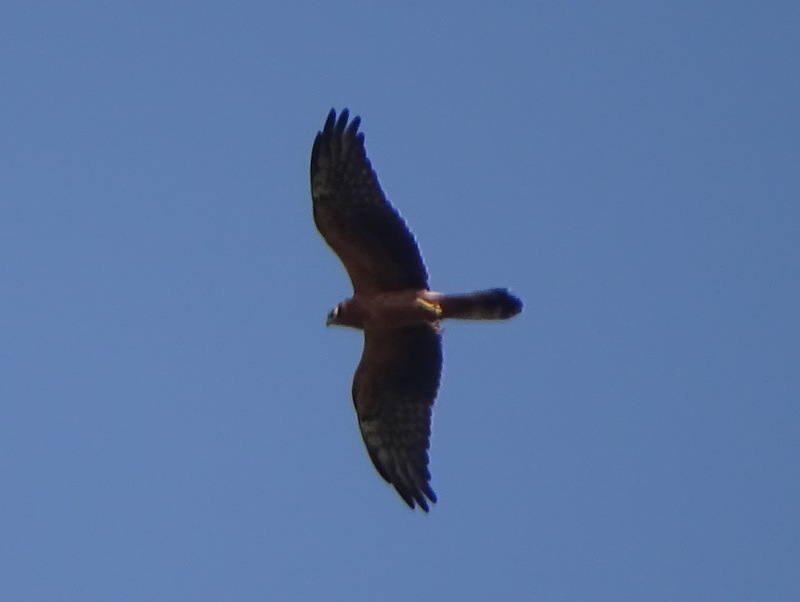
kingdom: Animalia
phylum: Chordata
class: Aves
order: Accipitriformes
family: Accipitridae
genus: Circus
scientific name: Circus pygargus
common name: Montagu's harrier
